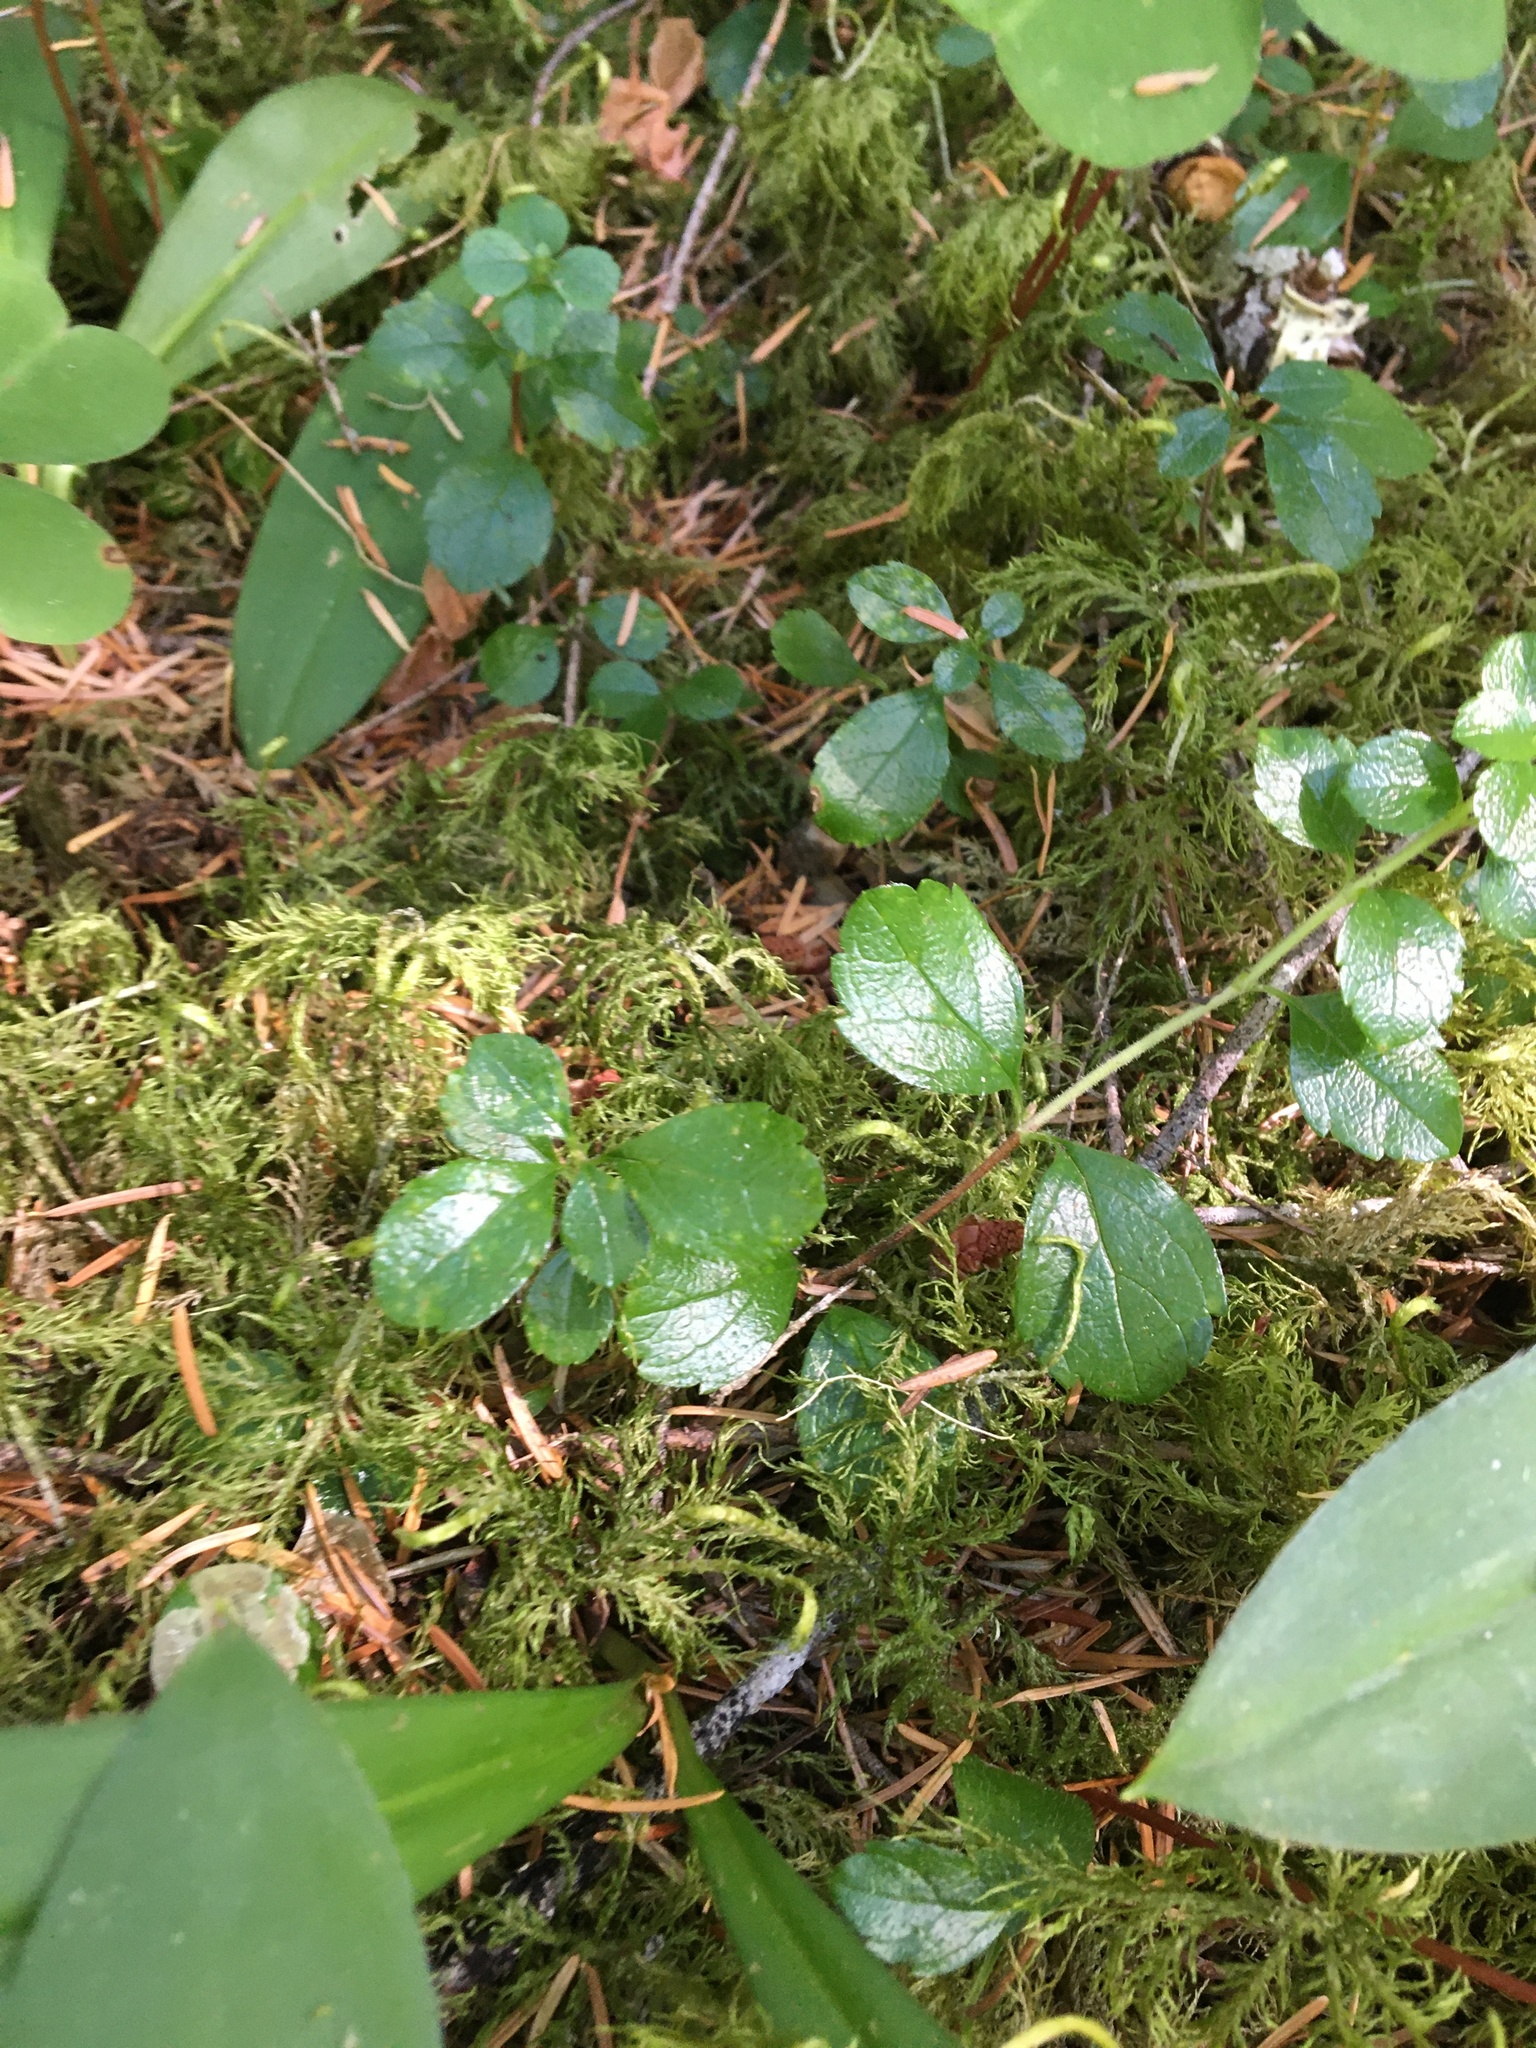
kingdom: Plantae
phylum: Tracheophyta
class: Magnoliopsida
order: Dipsacales
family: Caprifoliaceae
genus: Linnaea
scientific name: Linnaea borealis
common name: Twinflower
